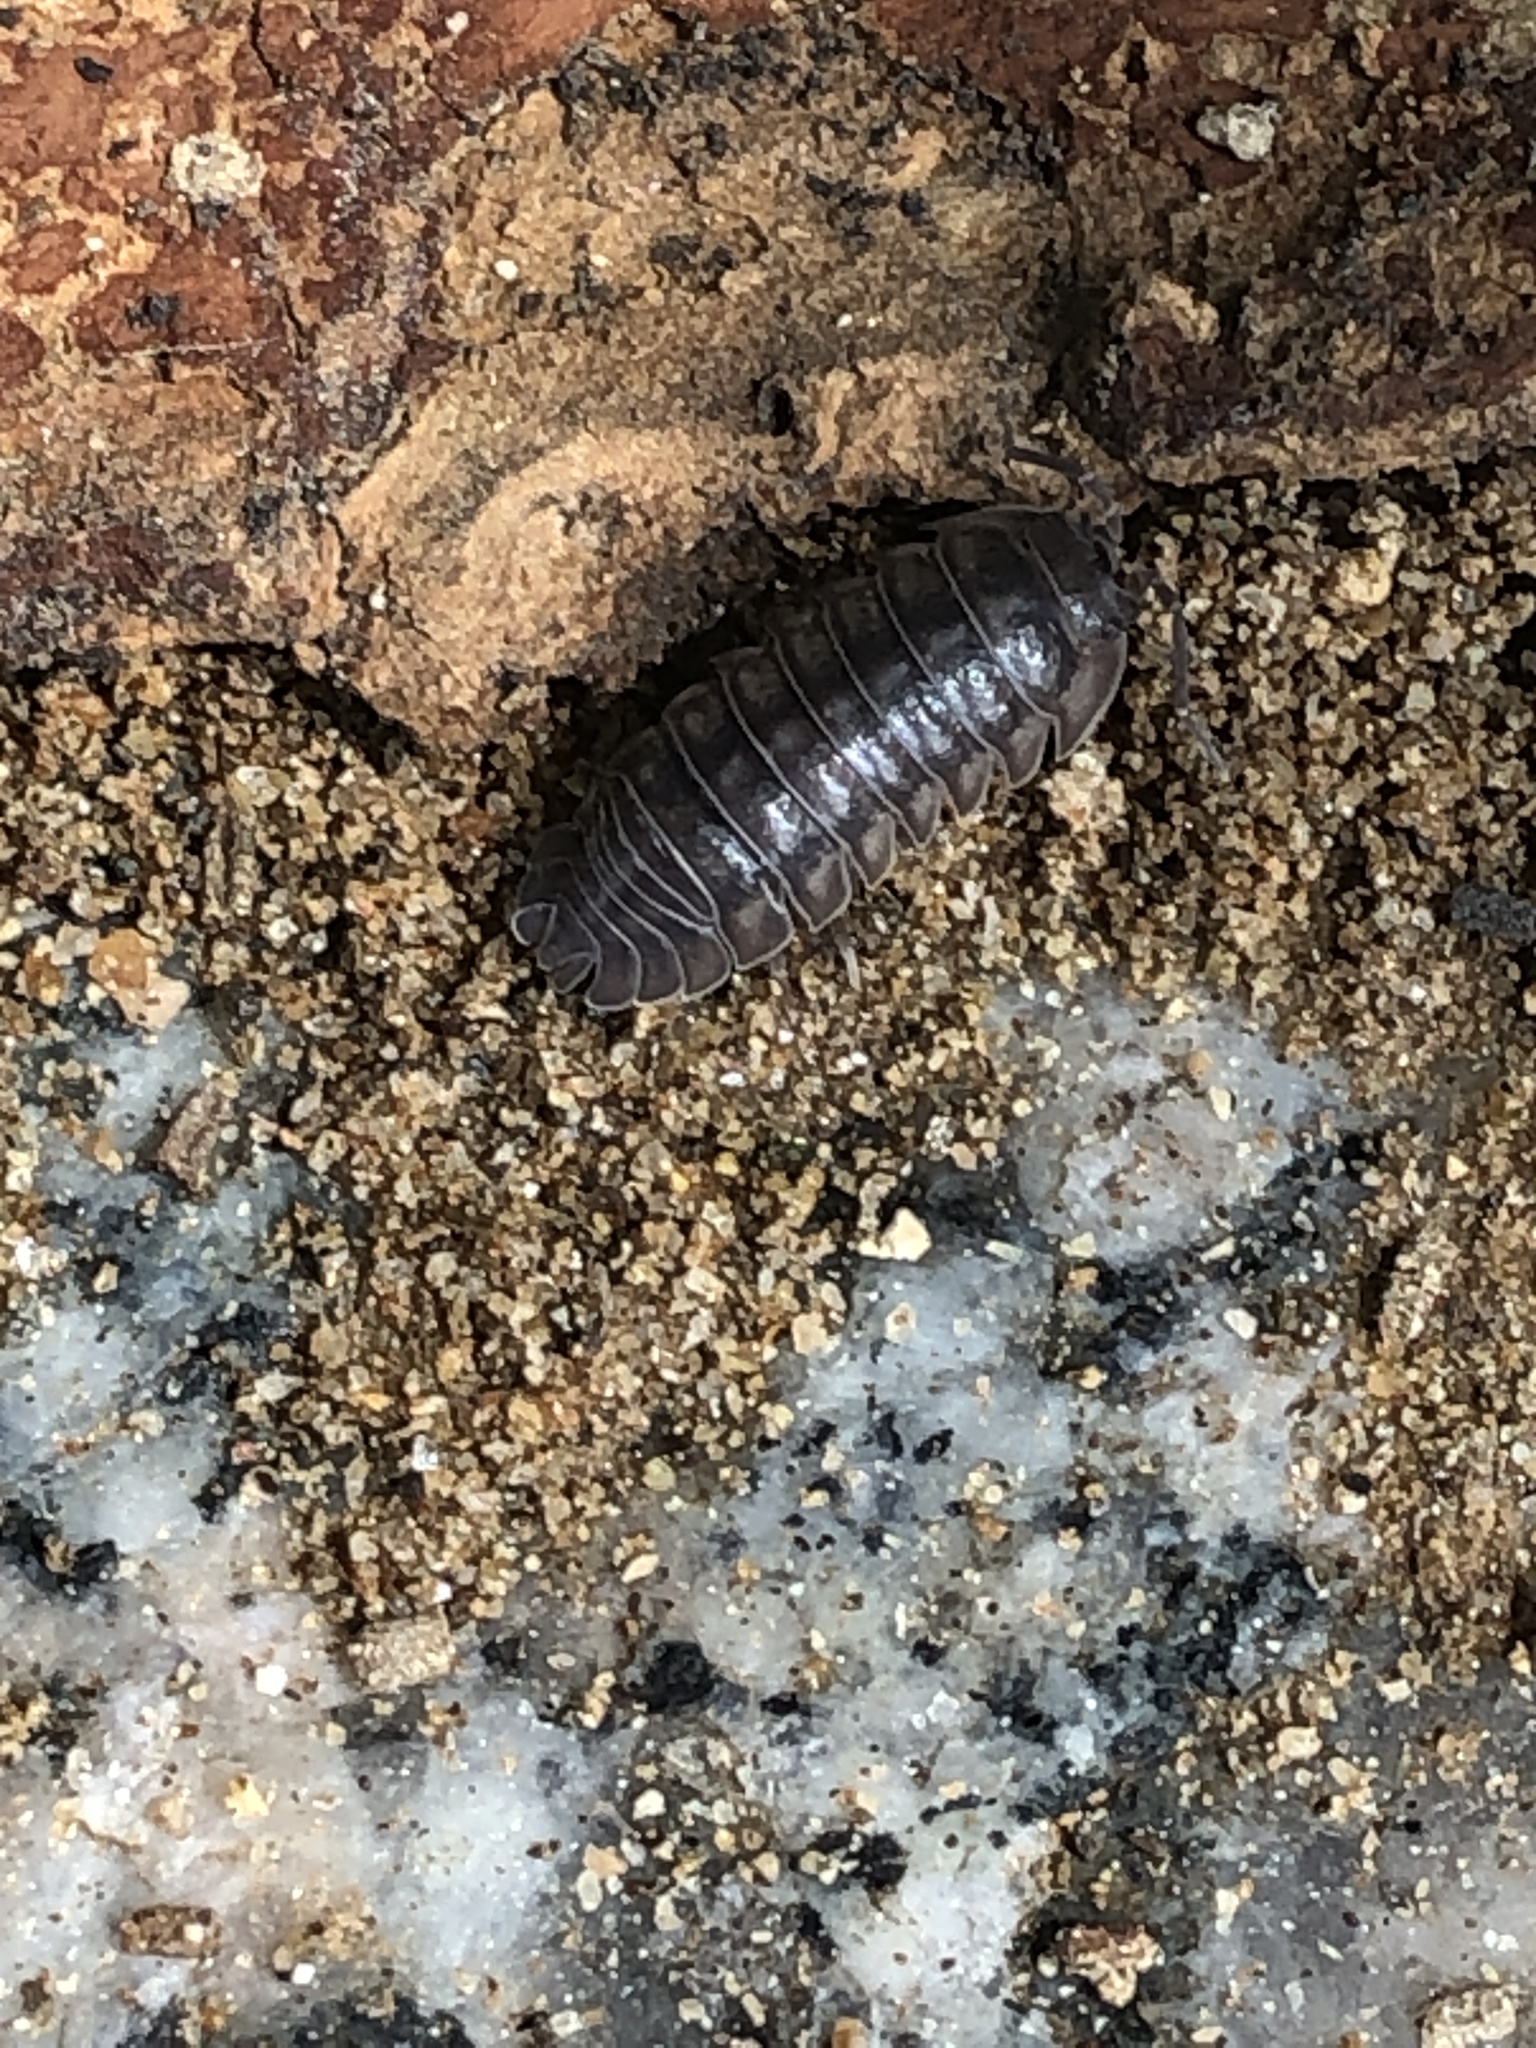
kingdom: Animalia
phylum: Arthropoda
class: Malacostraca
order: Isopoda
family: Armadillidiidae
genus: Armadillidium
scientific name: Armadillidium nasatum
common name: Isopod
